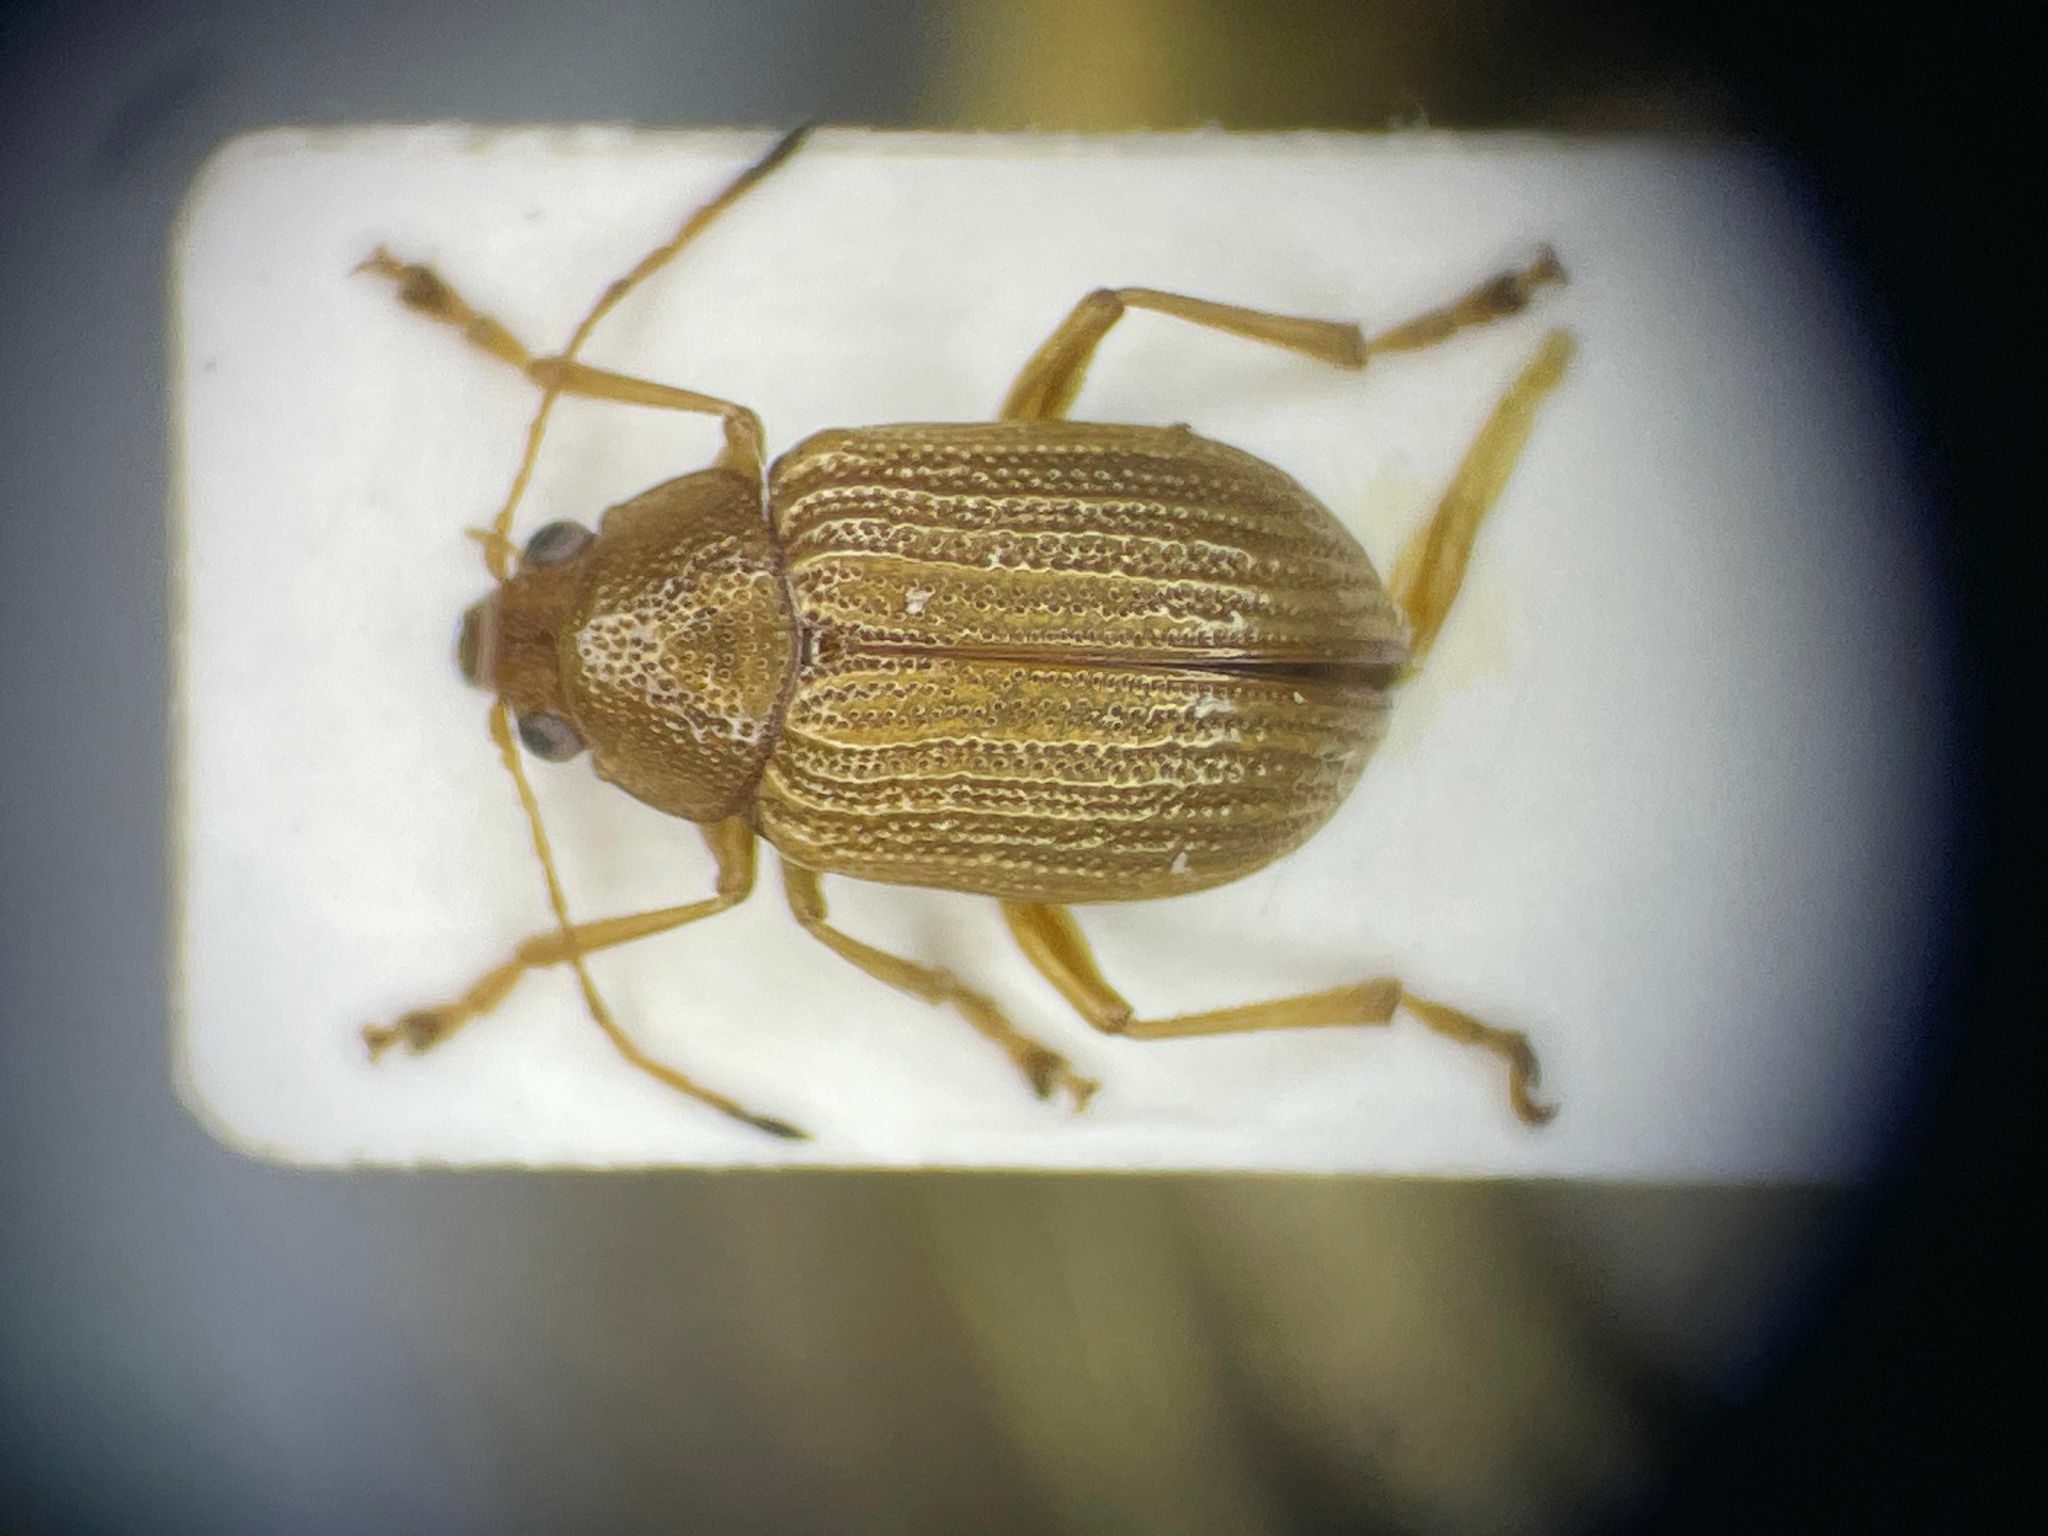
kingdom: Animalia
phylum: Arthropoda
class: Insecta
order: Coleoptera
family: Chrysomelidae
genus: Colaspis
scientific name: Colaspis brunnea
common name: Grape colaspis
